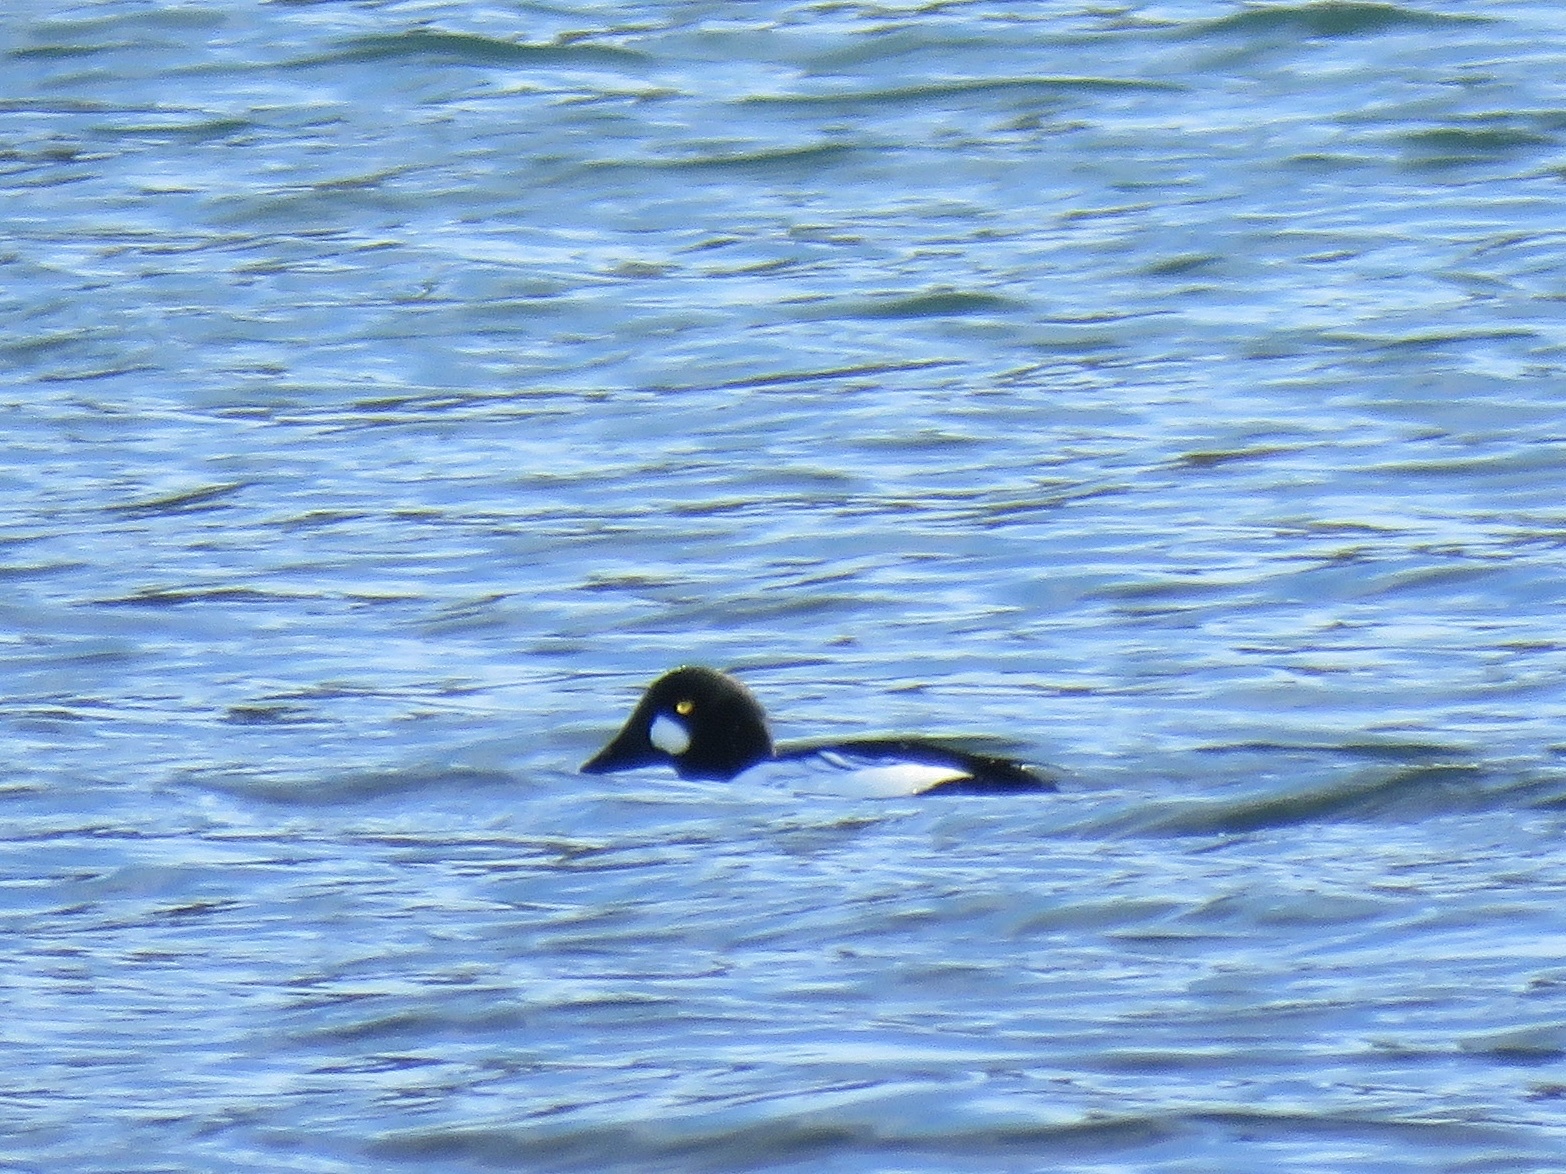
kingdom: Animalia
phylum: Chordata
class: Aves
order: Anseriformes
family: Anatidae
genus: Bucephala
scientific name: Bucephala clangula
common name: Common goldeneye
